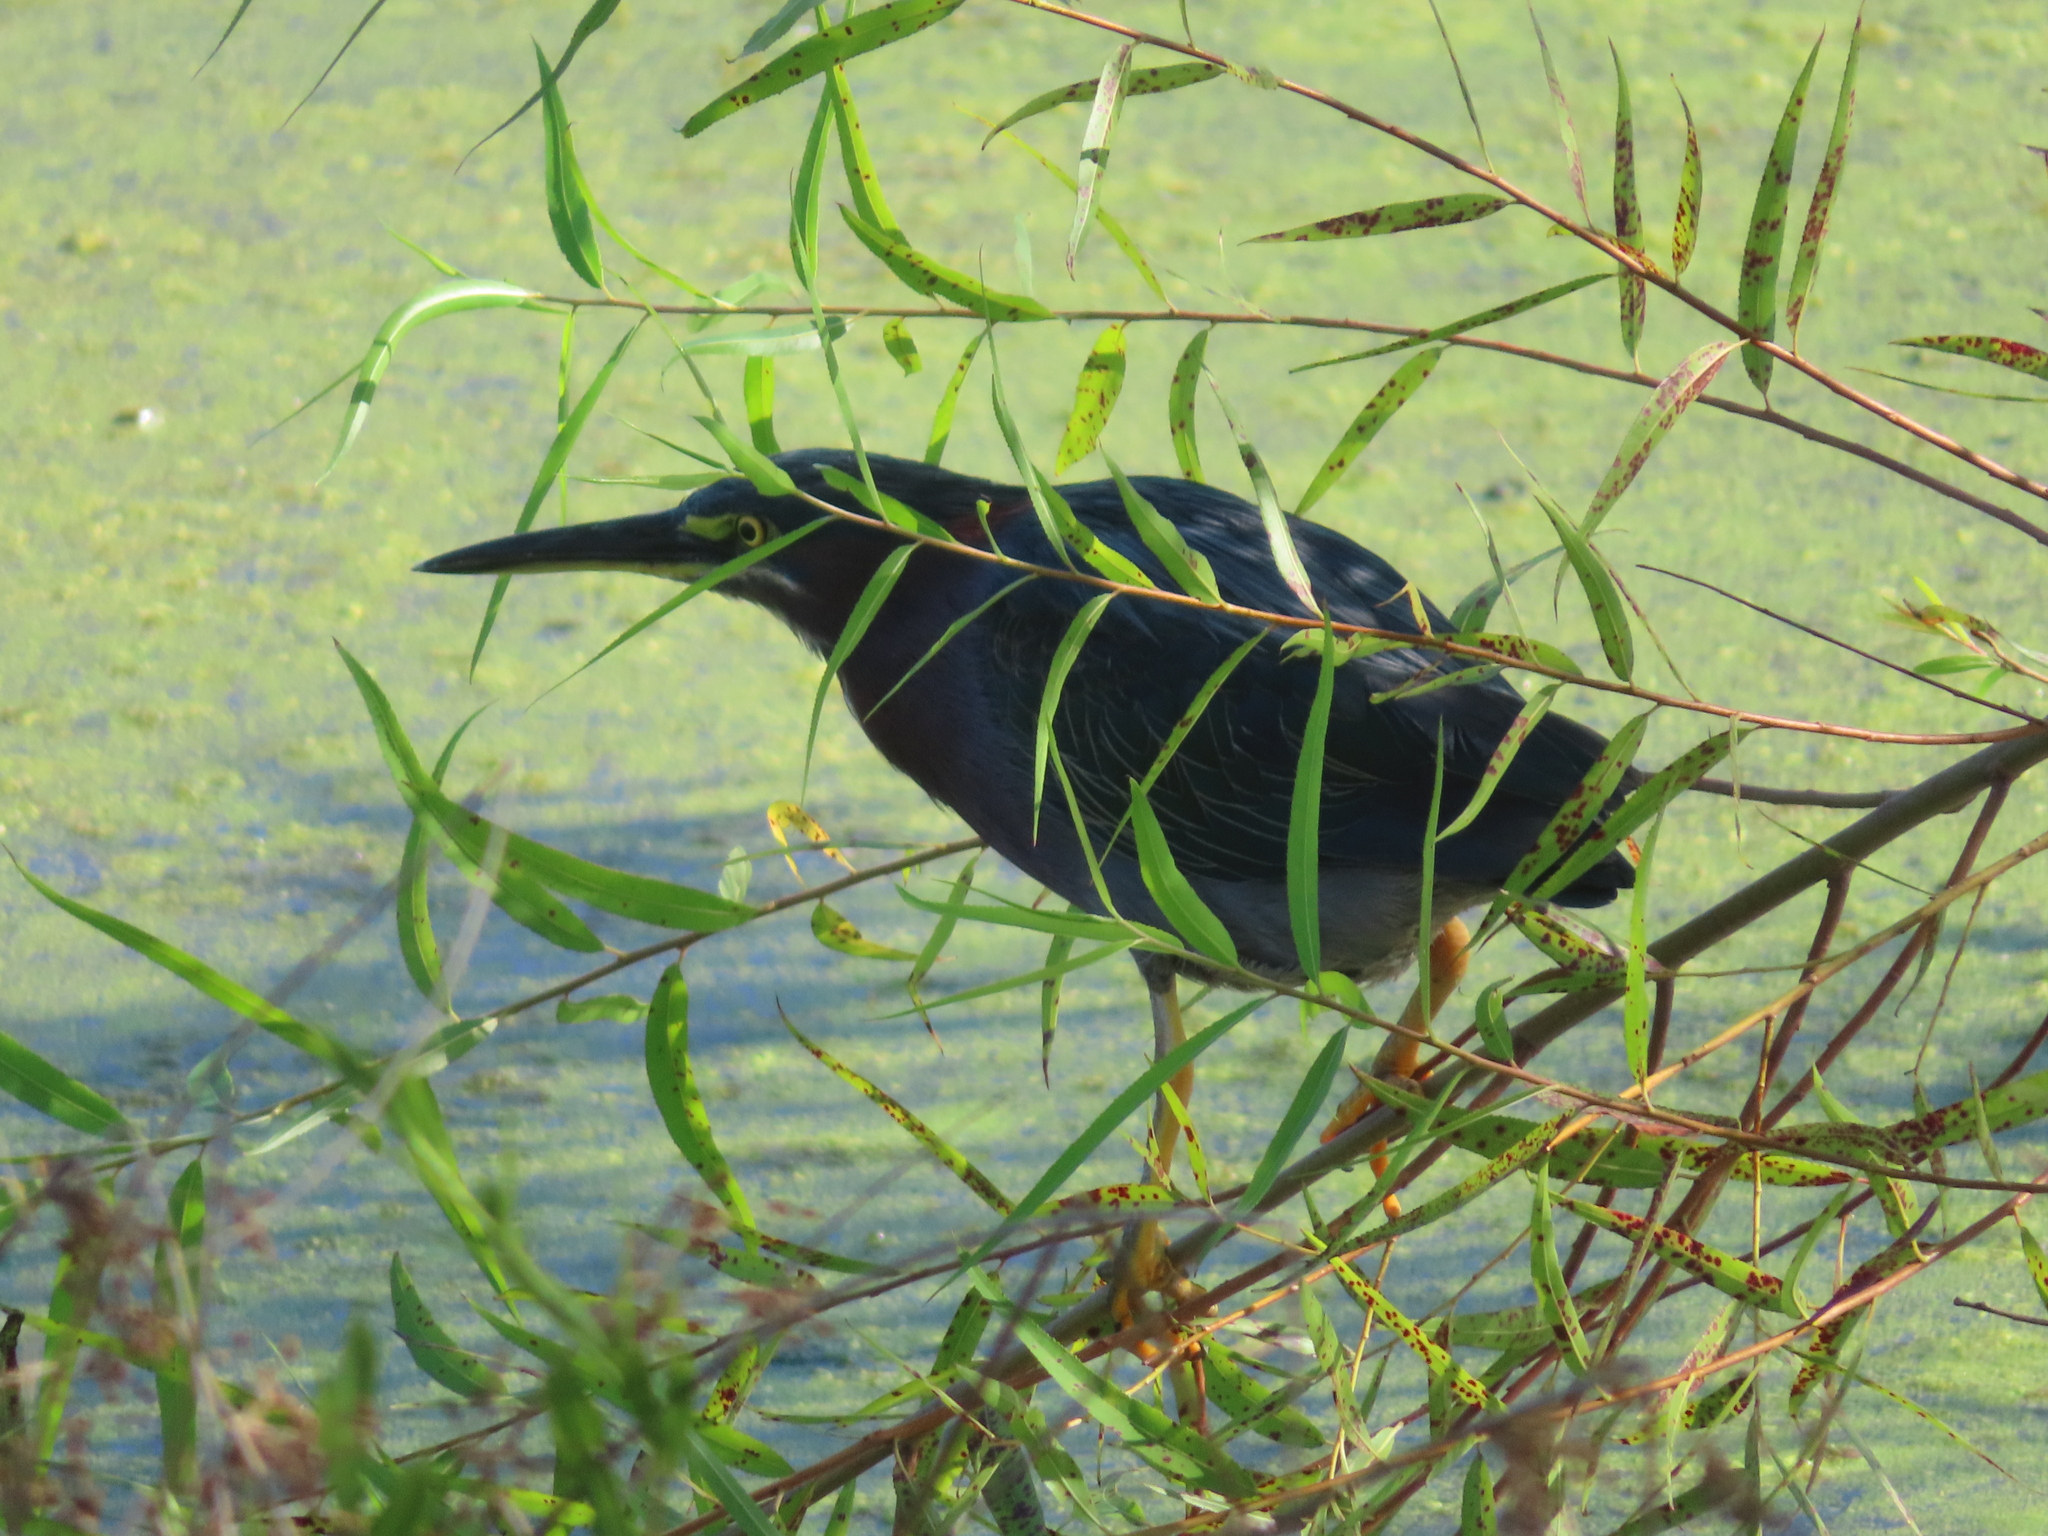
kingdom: Animalia
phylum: Chordata
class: Aves
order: Pelecaniformes
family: Ardeidae
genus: Butorides
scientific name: Butorides virescens
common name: Green heron
